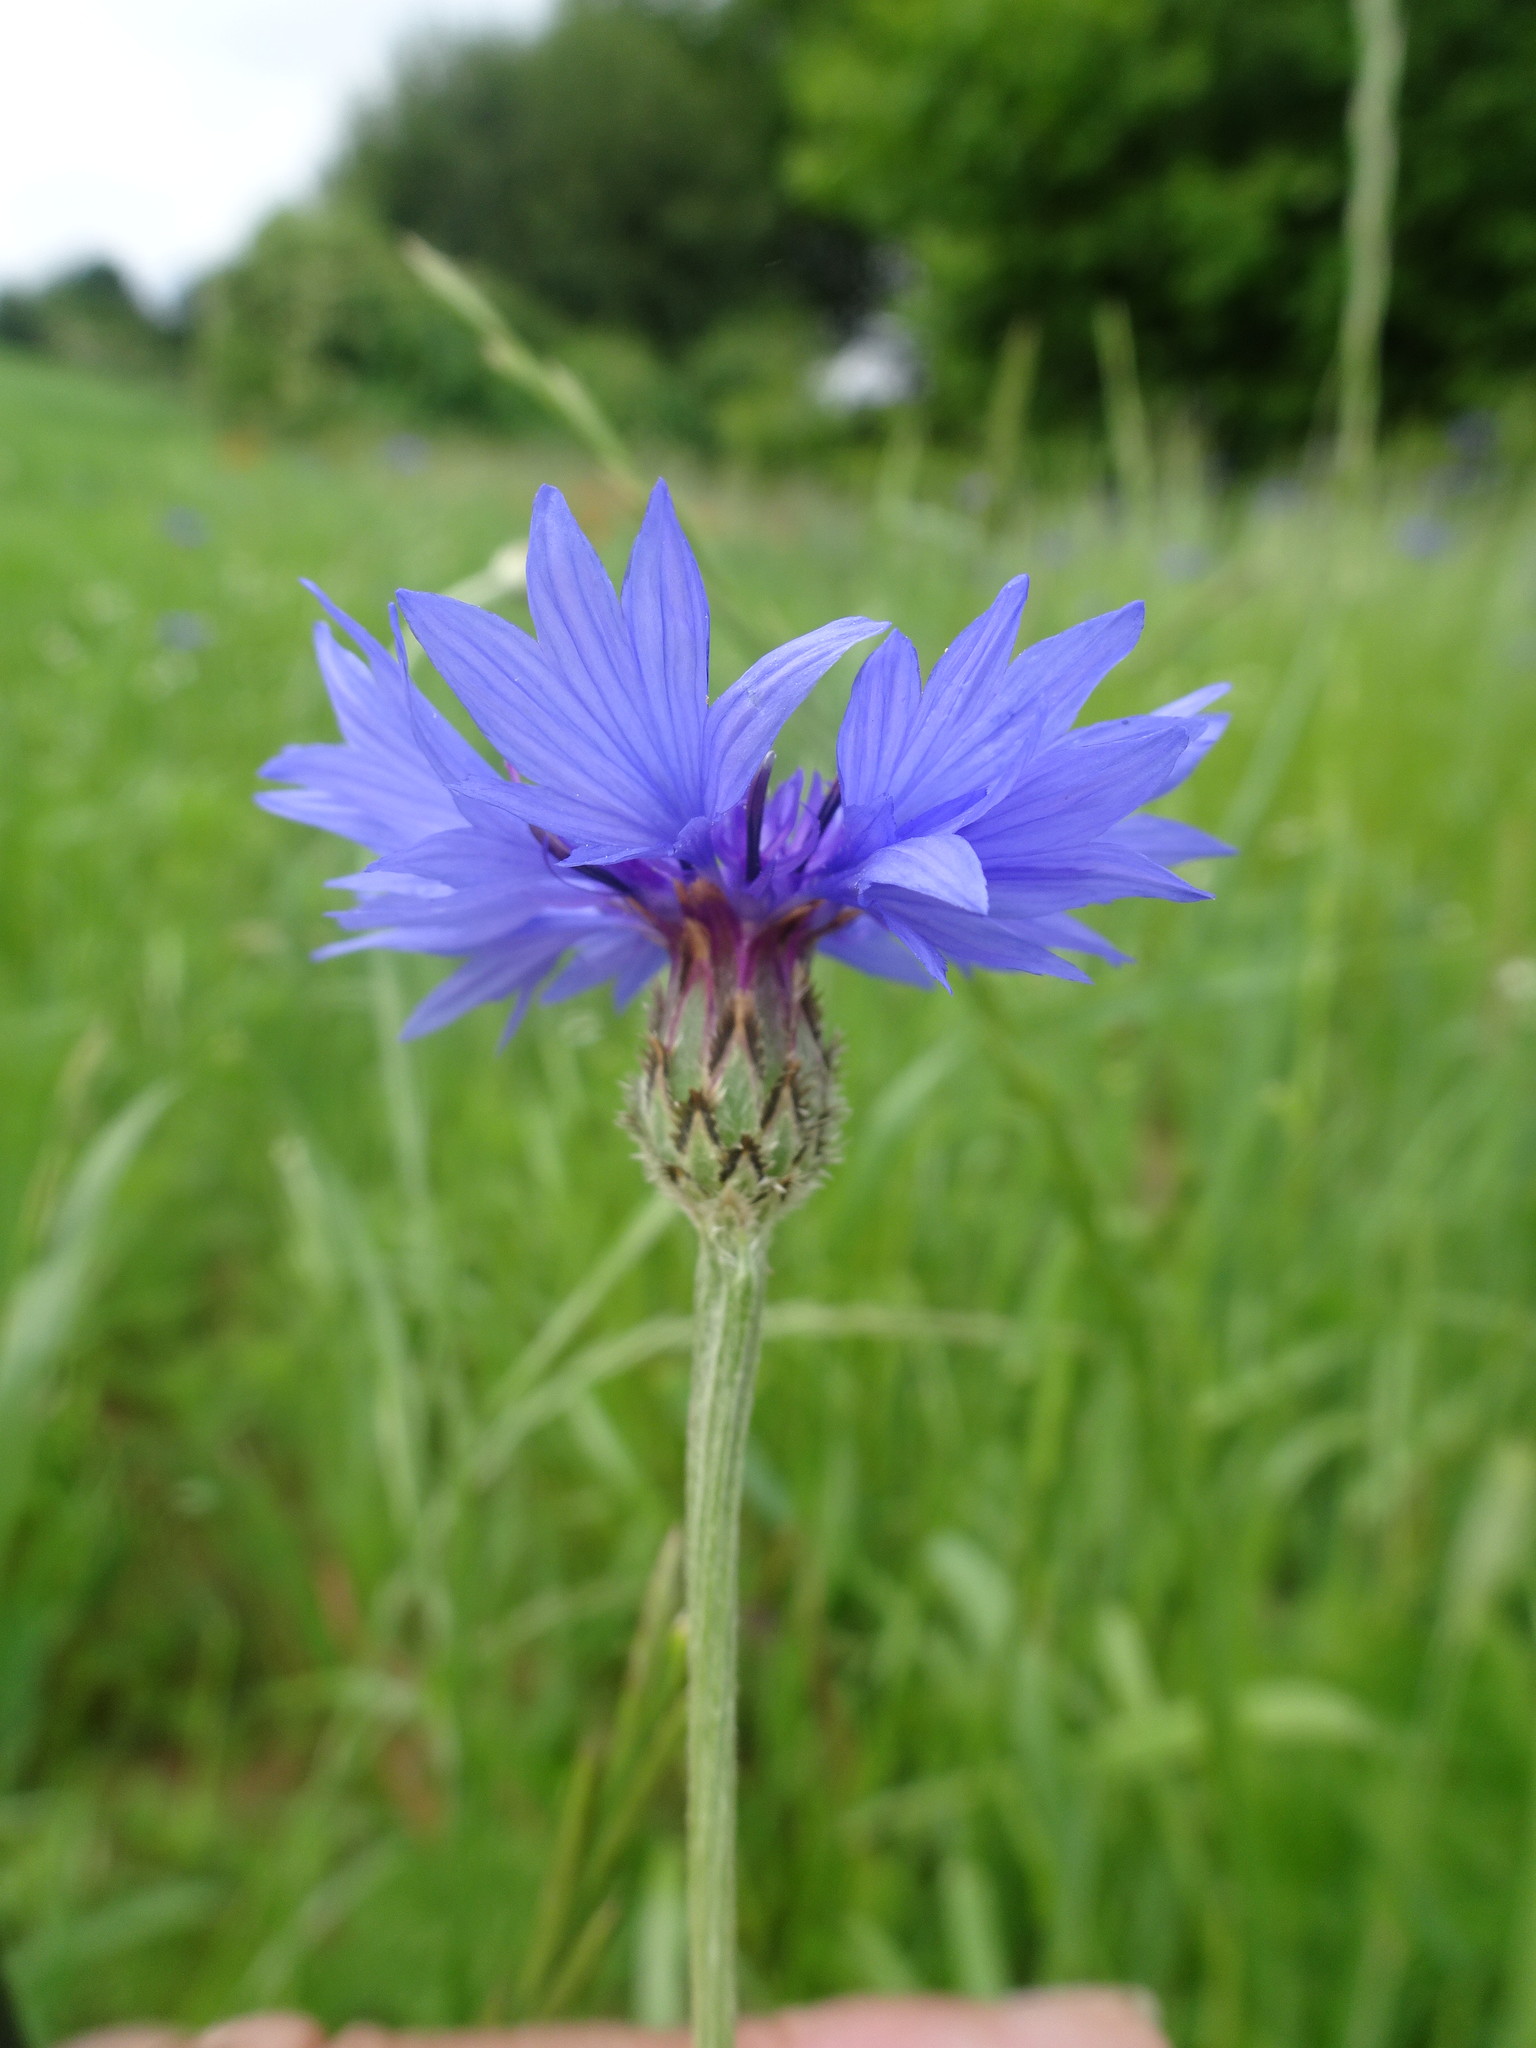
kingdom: Plantae
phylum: Tracheophyta
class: Magnoliopsida
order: Asterales
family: Asteraceae
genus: Centaurea
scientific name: Centaurea cyanus
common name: Cornflower
